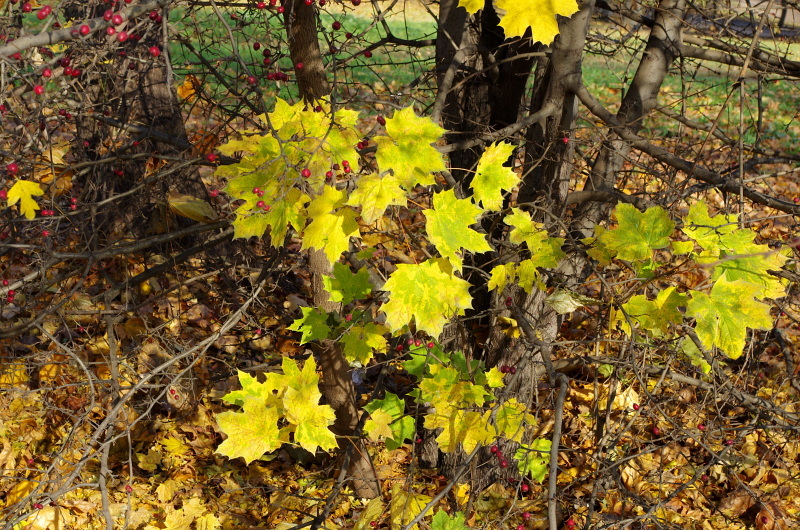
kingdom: Plantae
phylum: Tracheophyta
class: Magnoliopsida
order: Sapindales
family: Sapindaceae
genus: Acer
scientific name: Acer platanoides
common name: Norway maple
